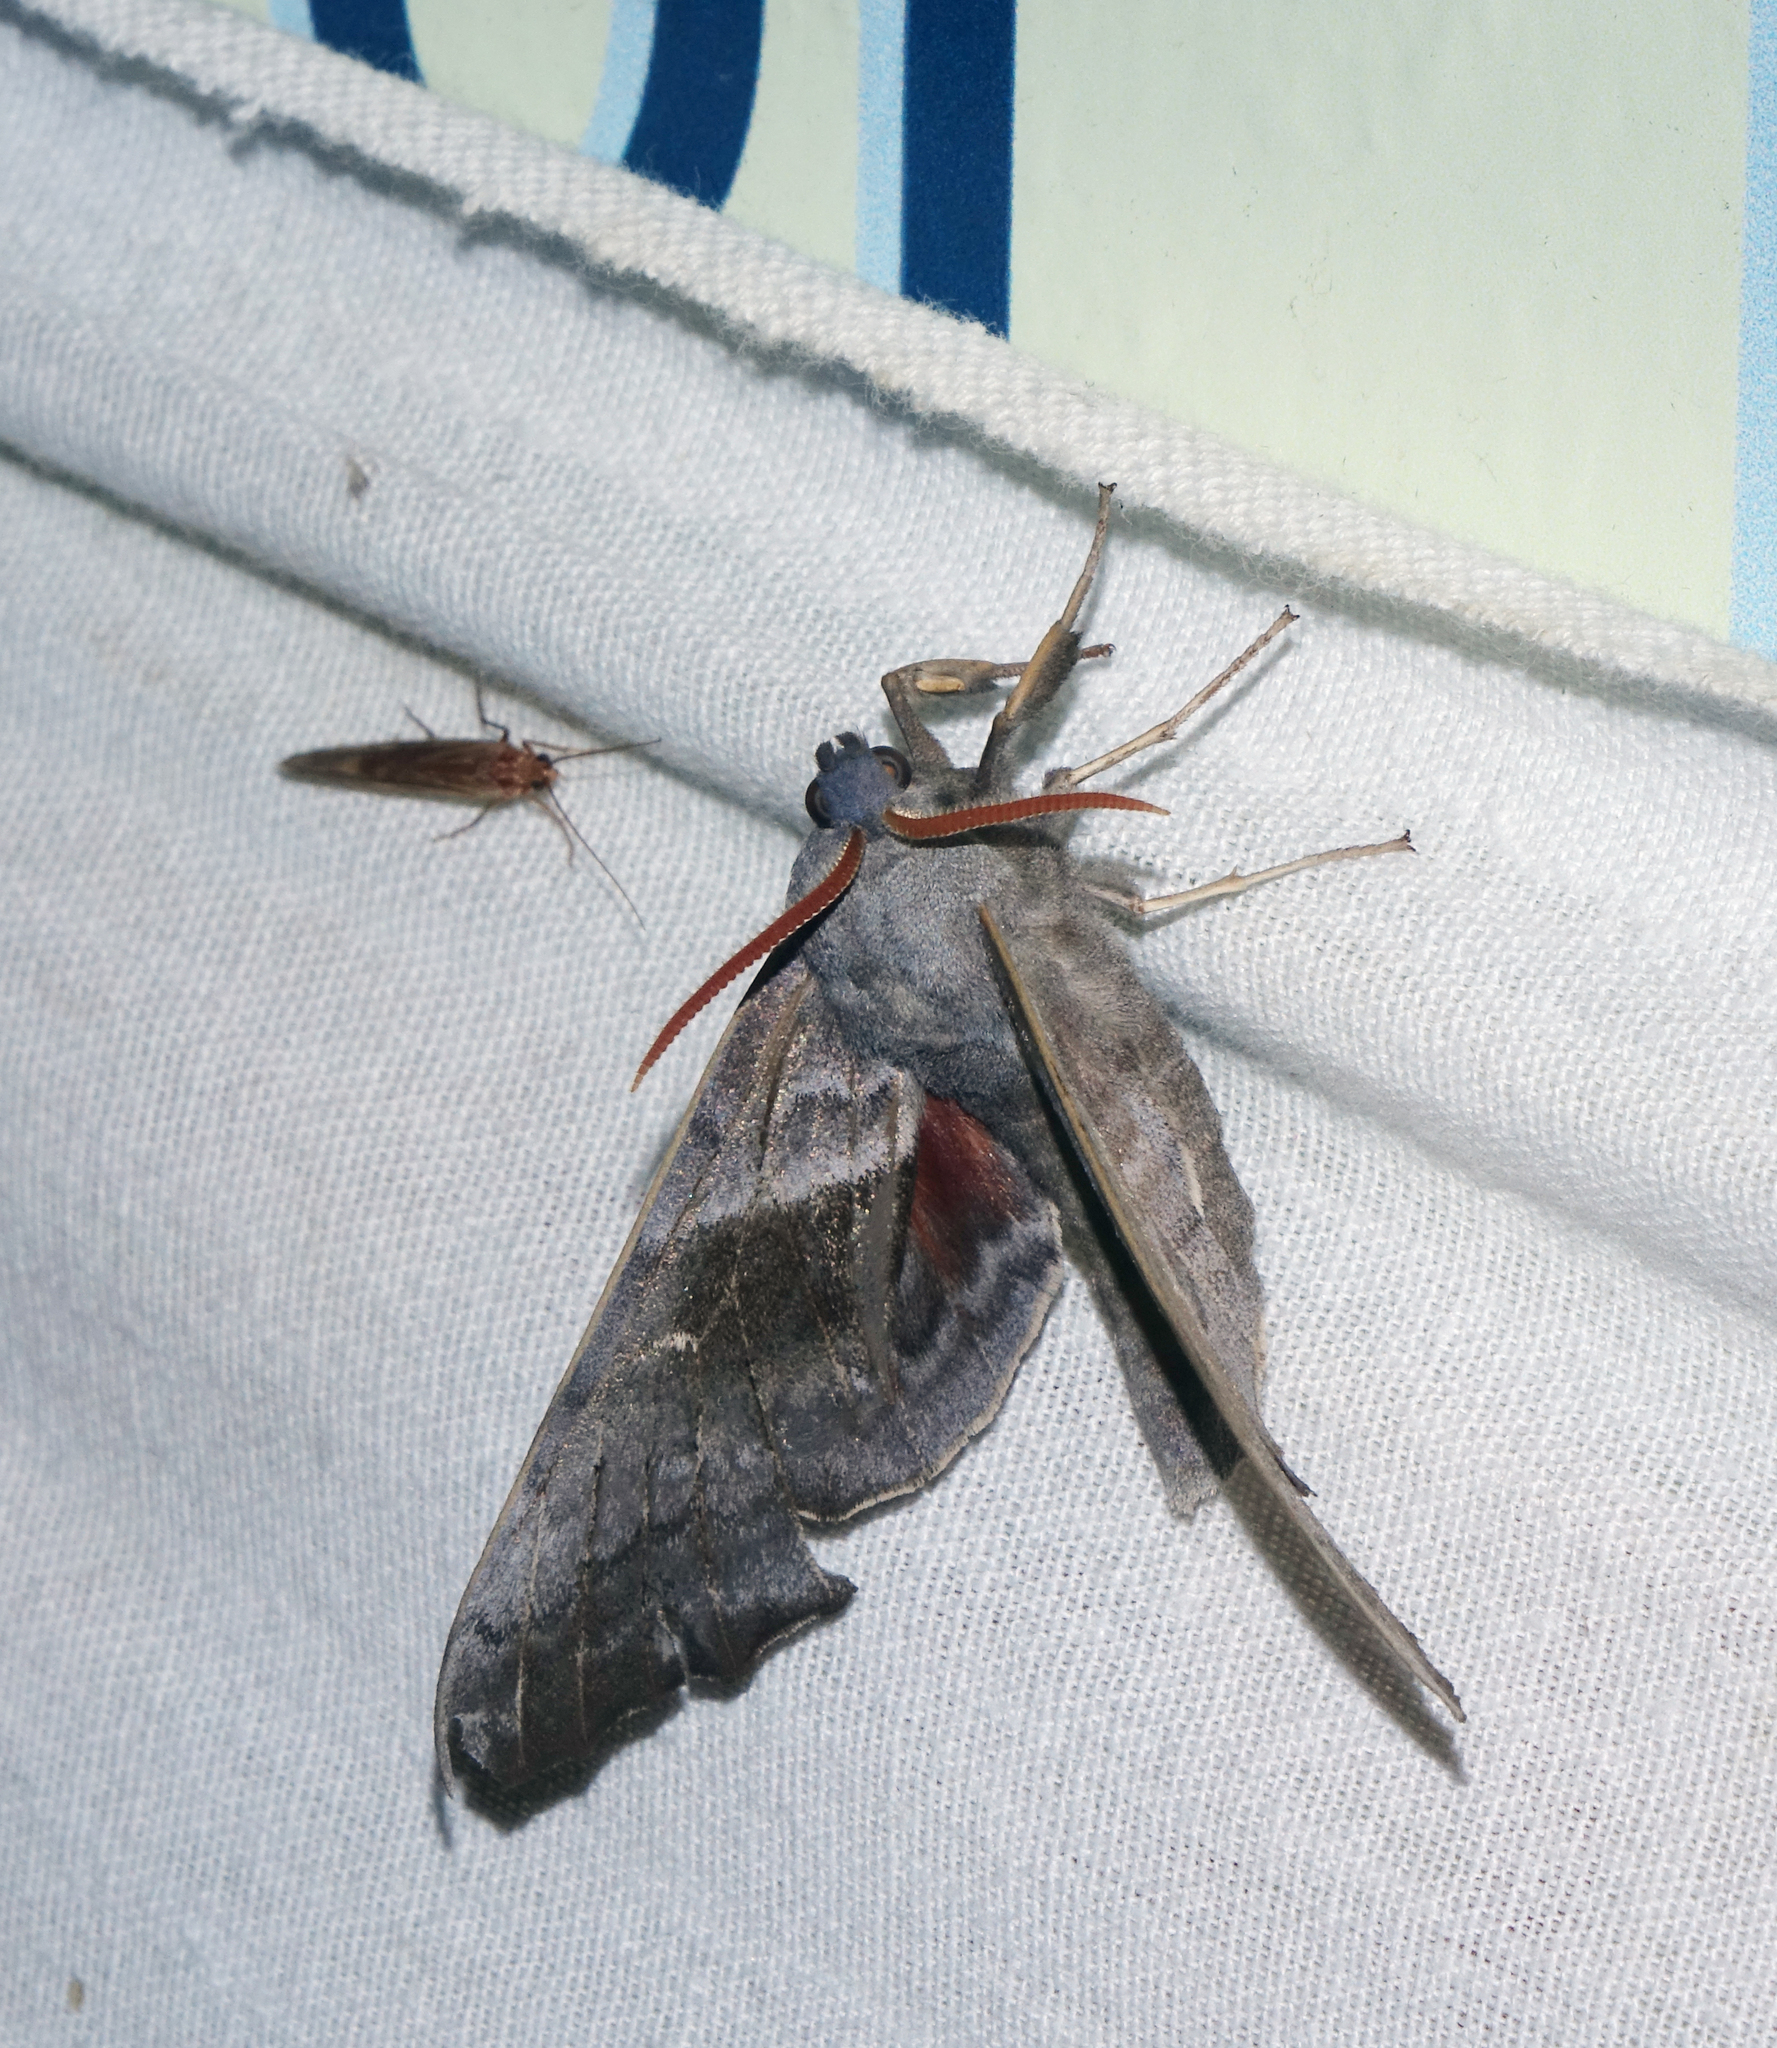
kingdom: Animalia
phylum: Arthropoda
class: Insecta
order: Lepidoptera
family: Sphingidae
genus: Laothoe
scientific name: Laothoe populi
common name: Poplar hawk-moth
